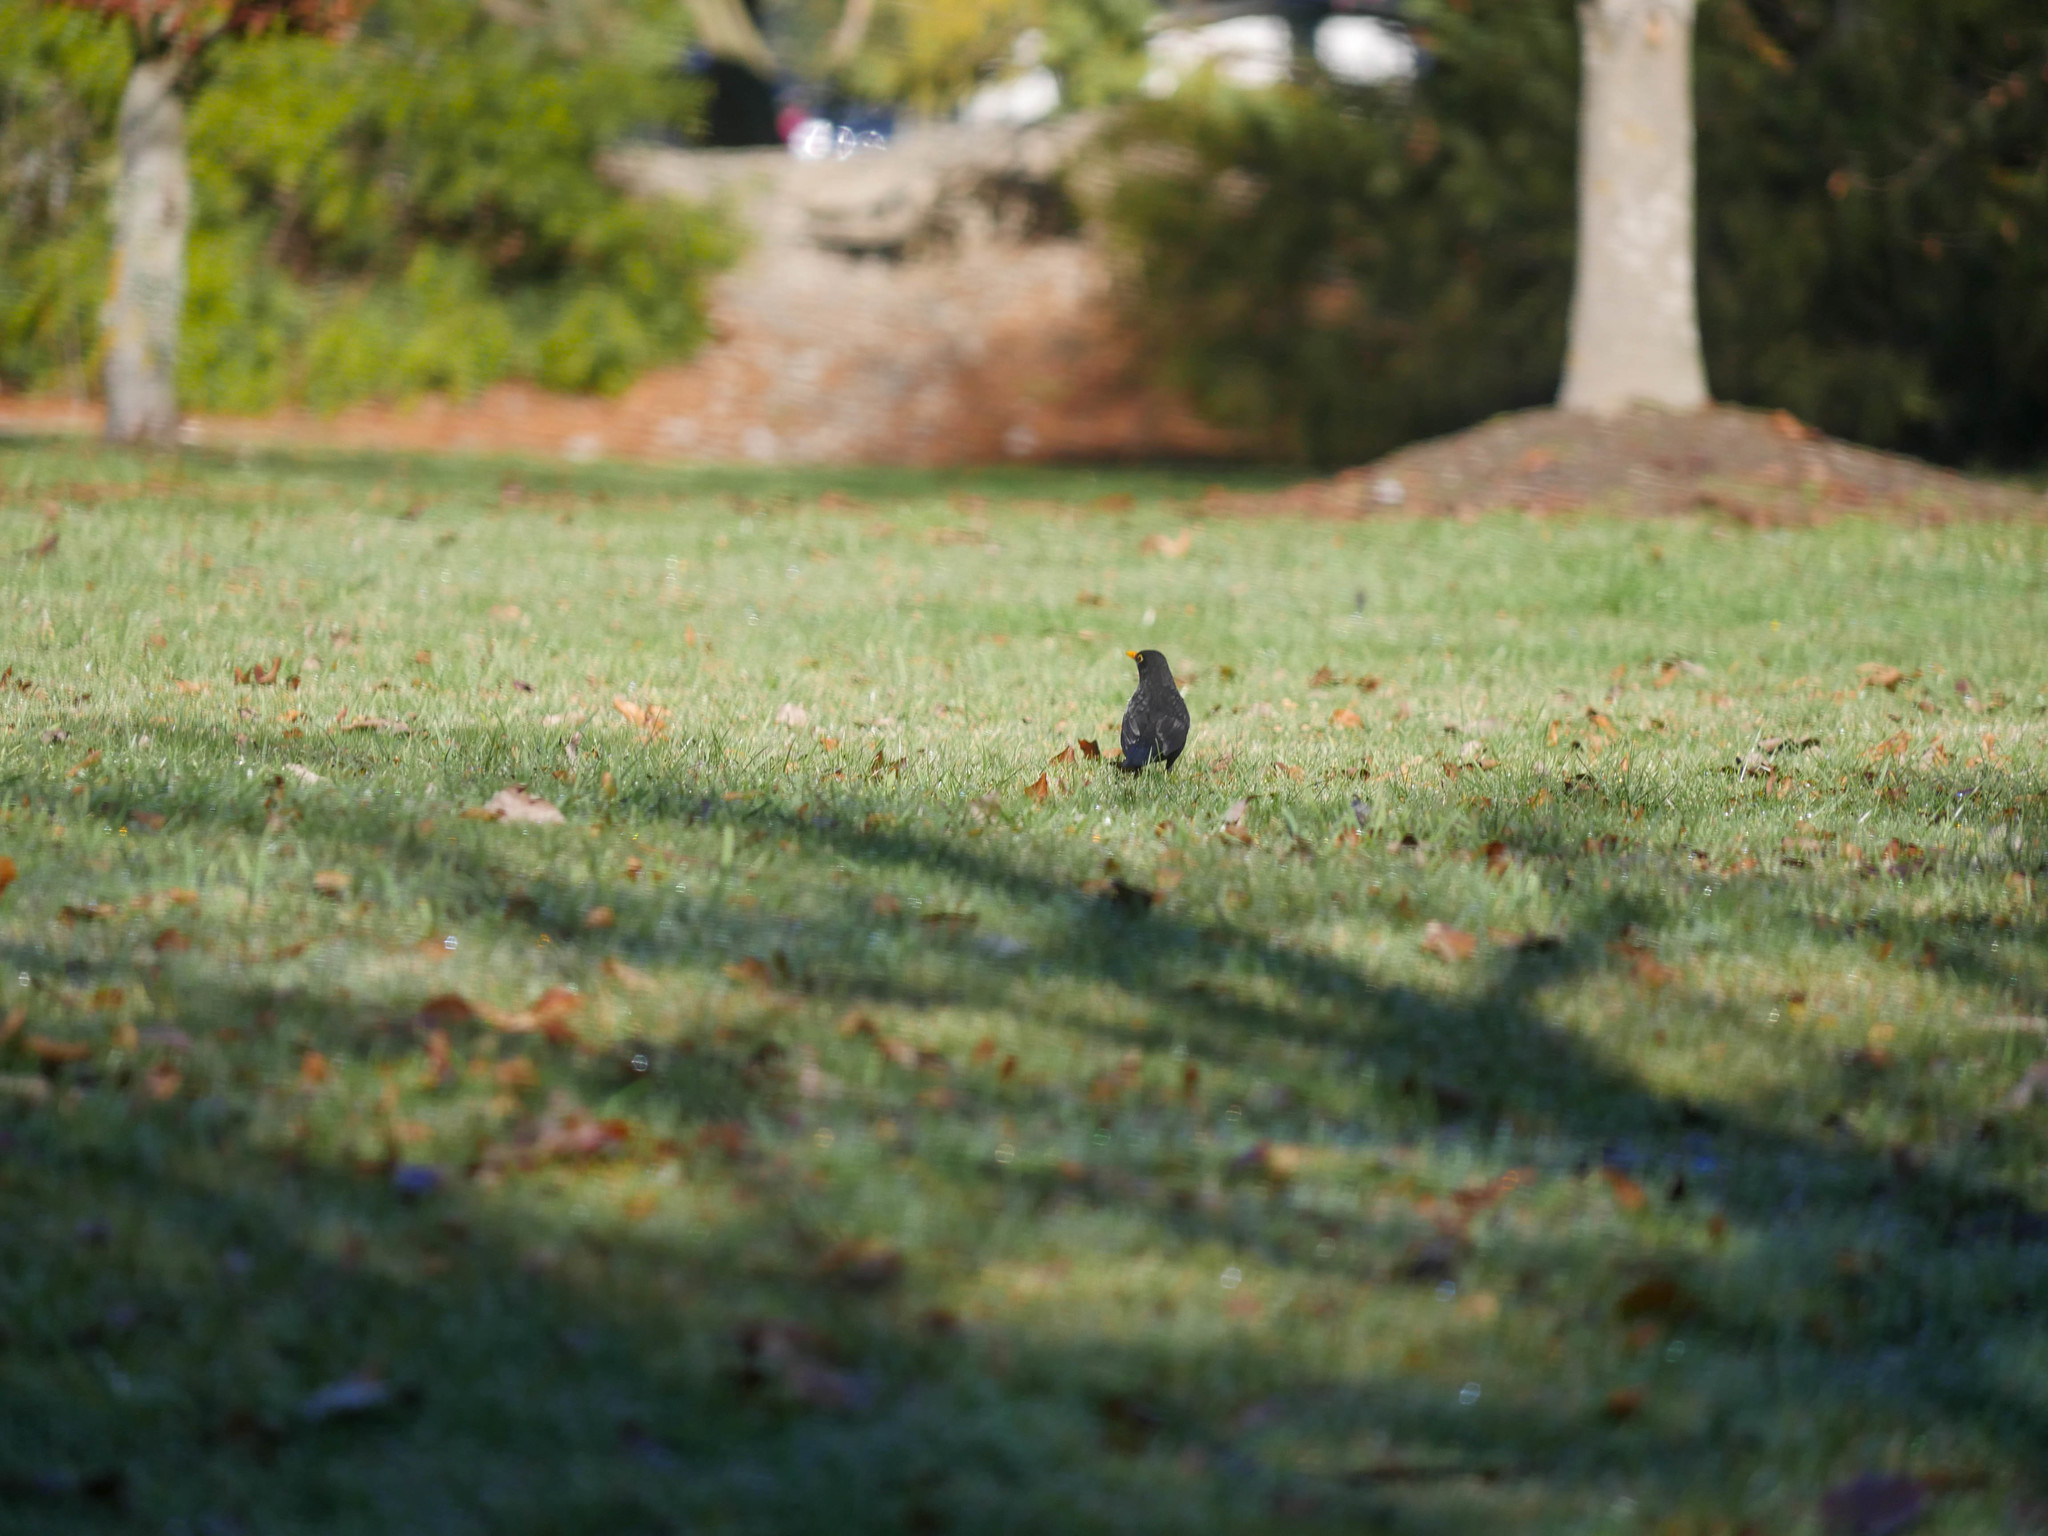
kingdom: Animalia
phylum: Chordata
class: Aves
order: Passeriformes
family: Turdidae
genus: Turdus
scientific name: Turdus merula
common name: Common blackbird
